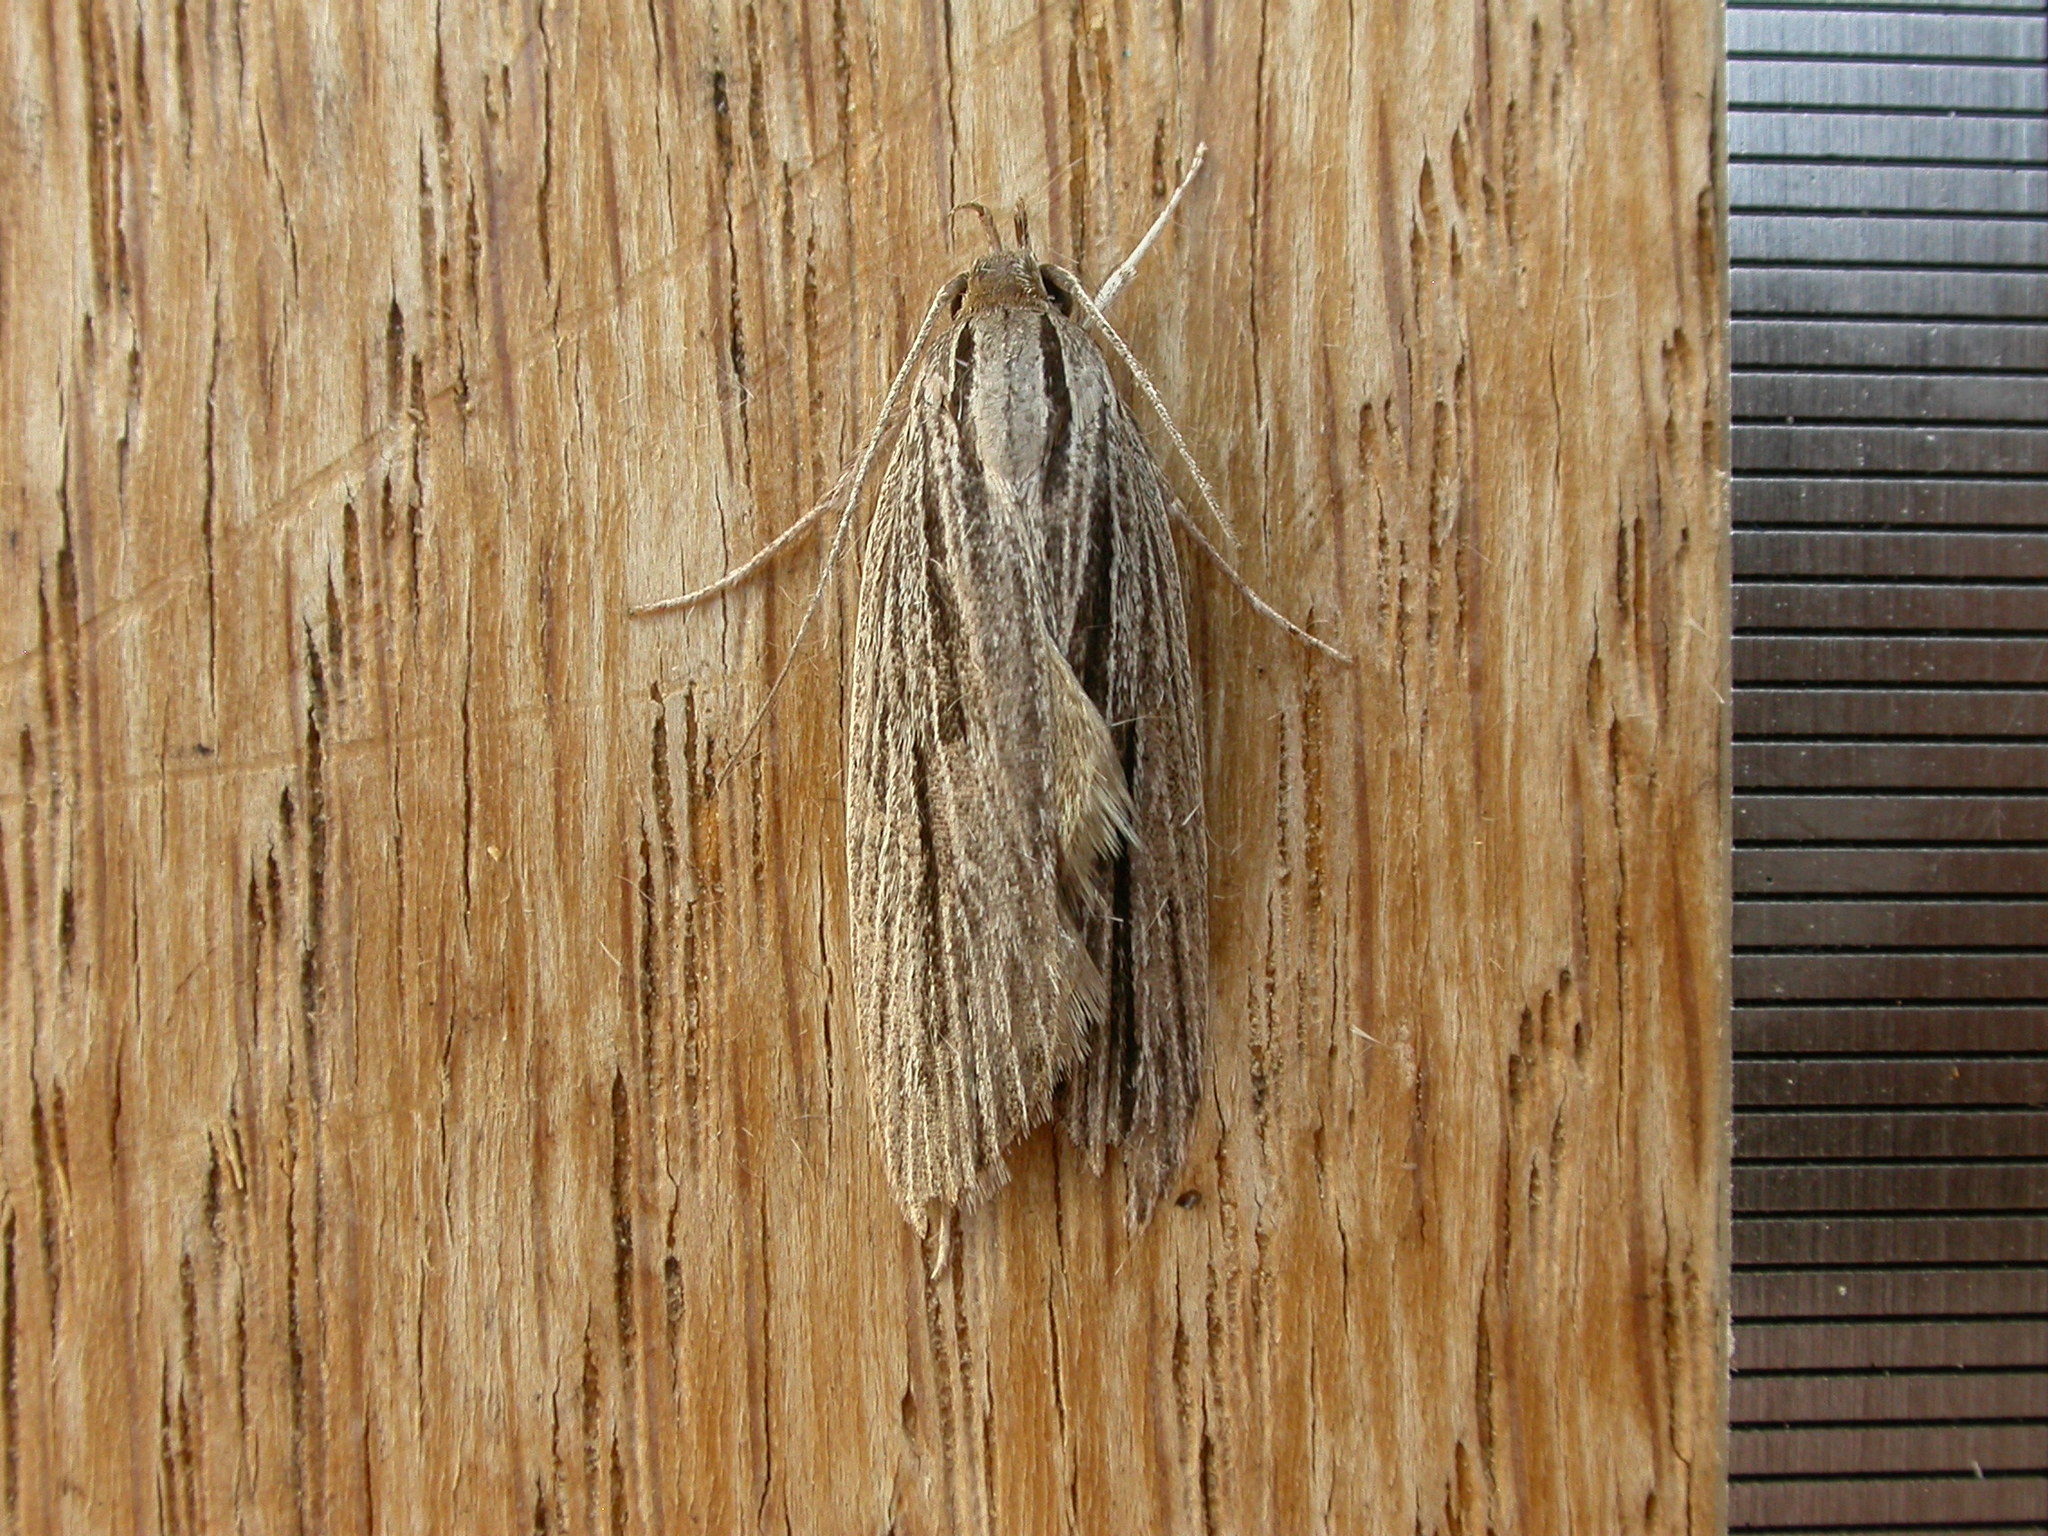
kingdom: Animalia
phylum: Arthropoda
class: Insecta
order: Lepidoptera
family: Xyloryctidae
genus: Leistarcha
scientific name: Leistarcha scitissimella
